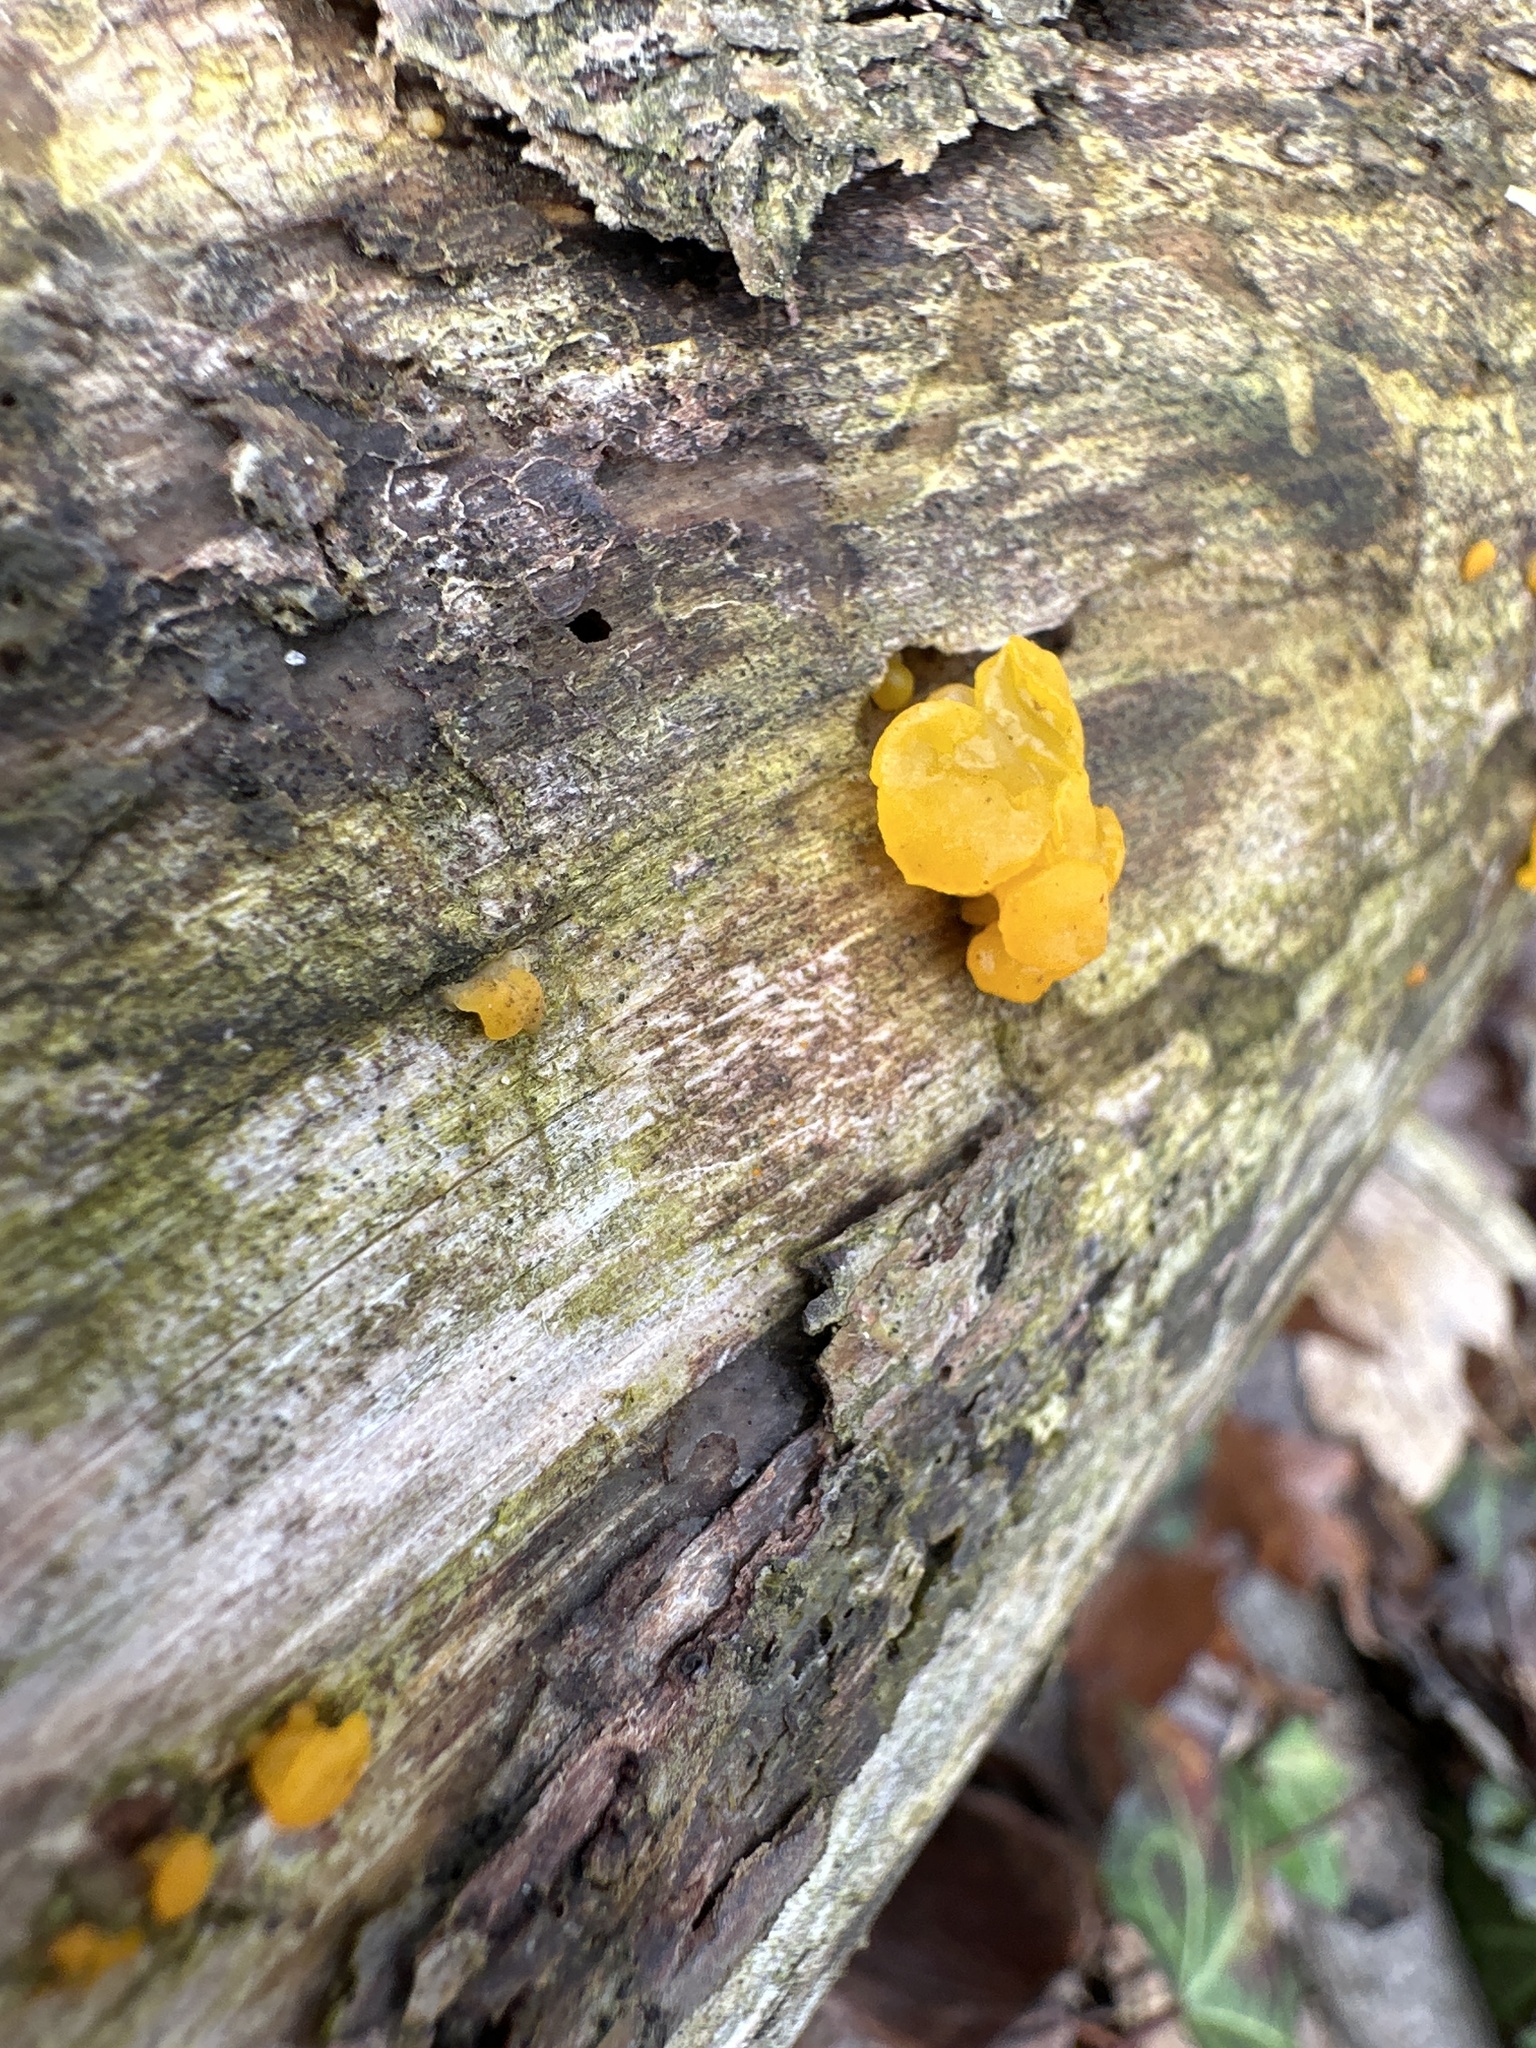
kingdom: Fungi
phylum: Basidiomycota
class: Tremellomycetes
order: Tremellales
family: Tremellaceae
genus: Tremella
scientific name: Tremella mesenterica
